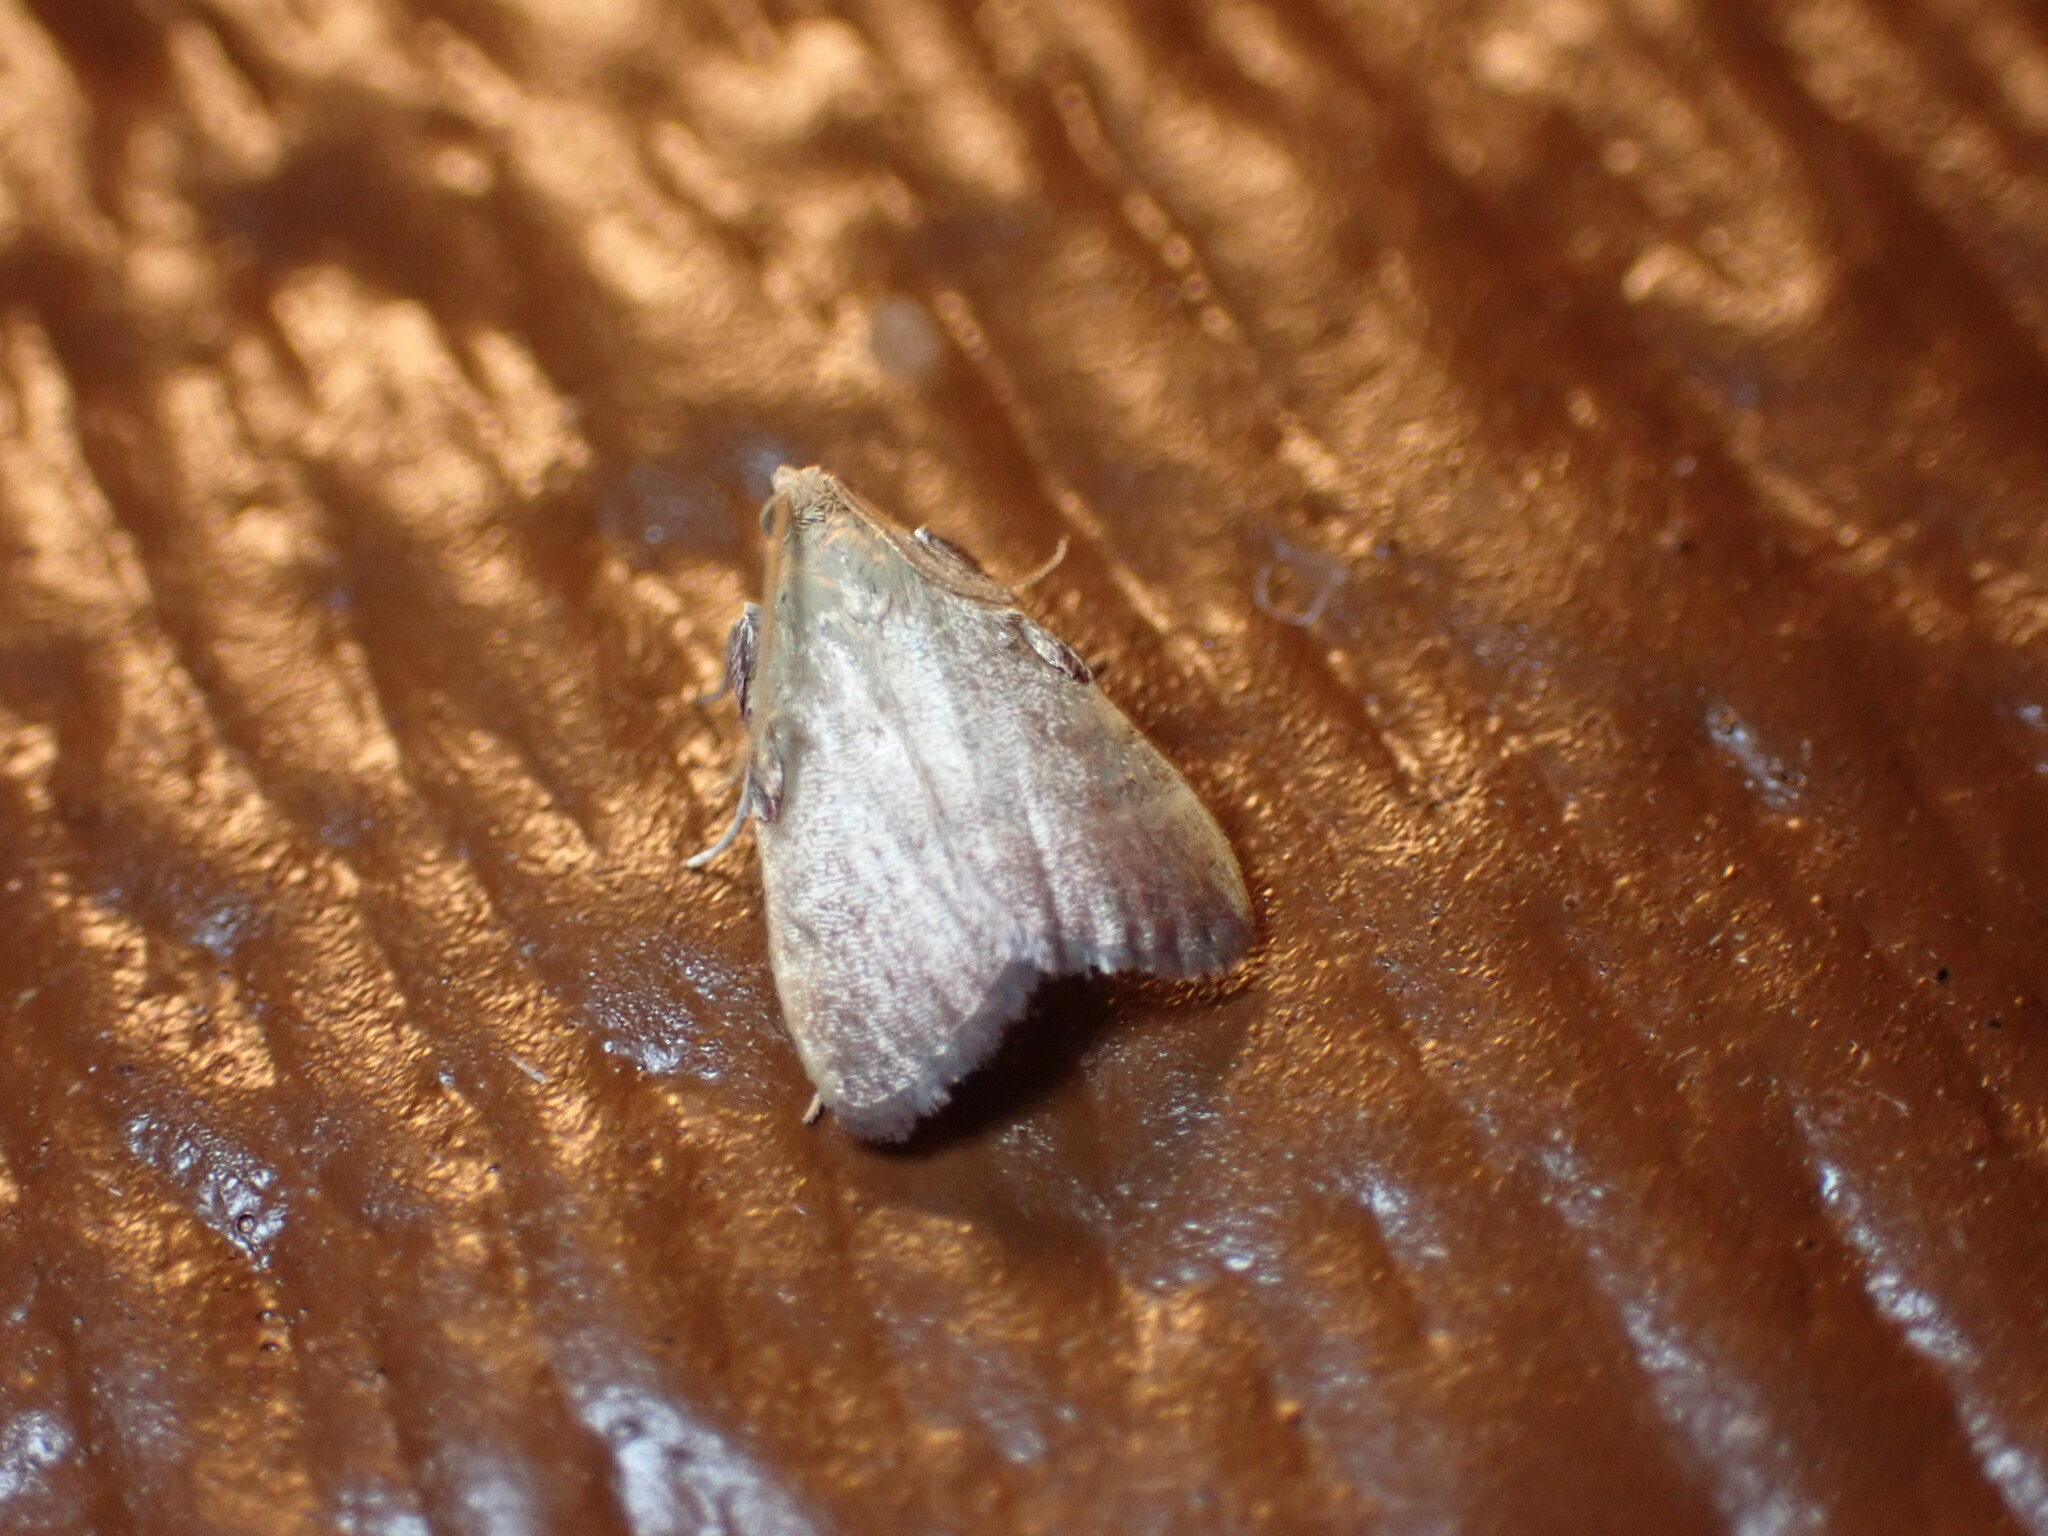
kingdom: Animalia
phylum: Arthropoda
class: Insecta
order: Lepidoptera
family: Pyralidae
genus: Condylolomia
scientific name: Condylolomia participialis
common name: Drab condylolomia moth
